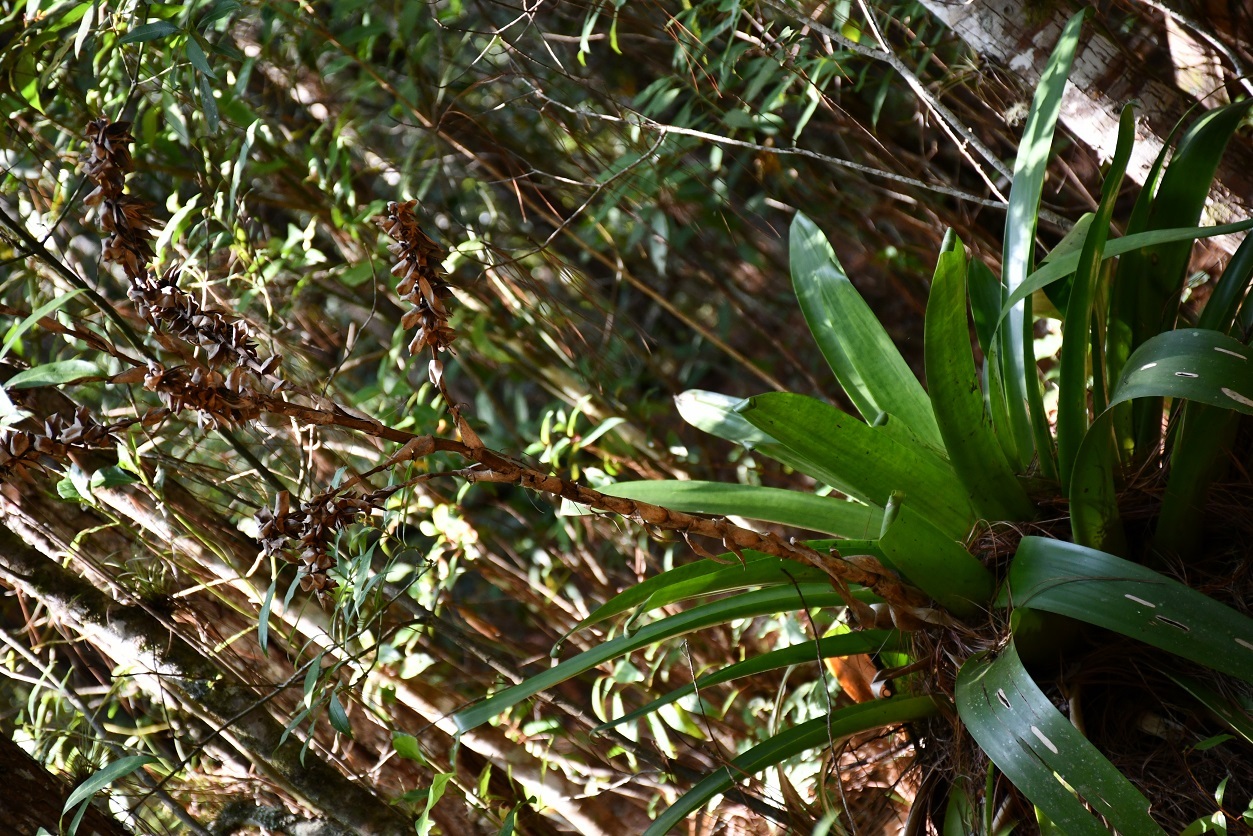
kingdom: Plantae
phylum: Tracheophyta
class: Liliopsida
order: Poales
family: Bromeliaceae
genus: Werauhia
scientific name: Werauhia werckleana
